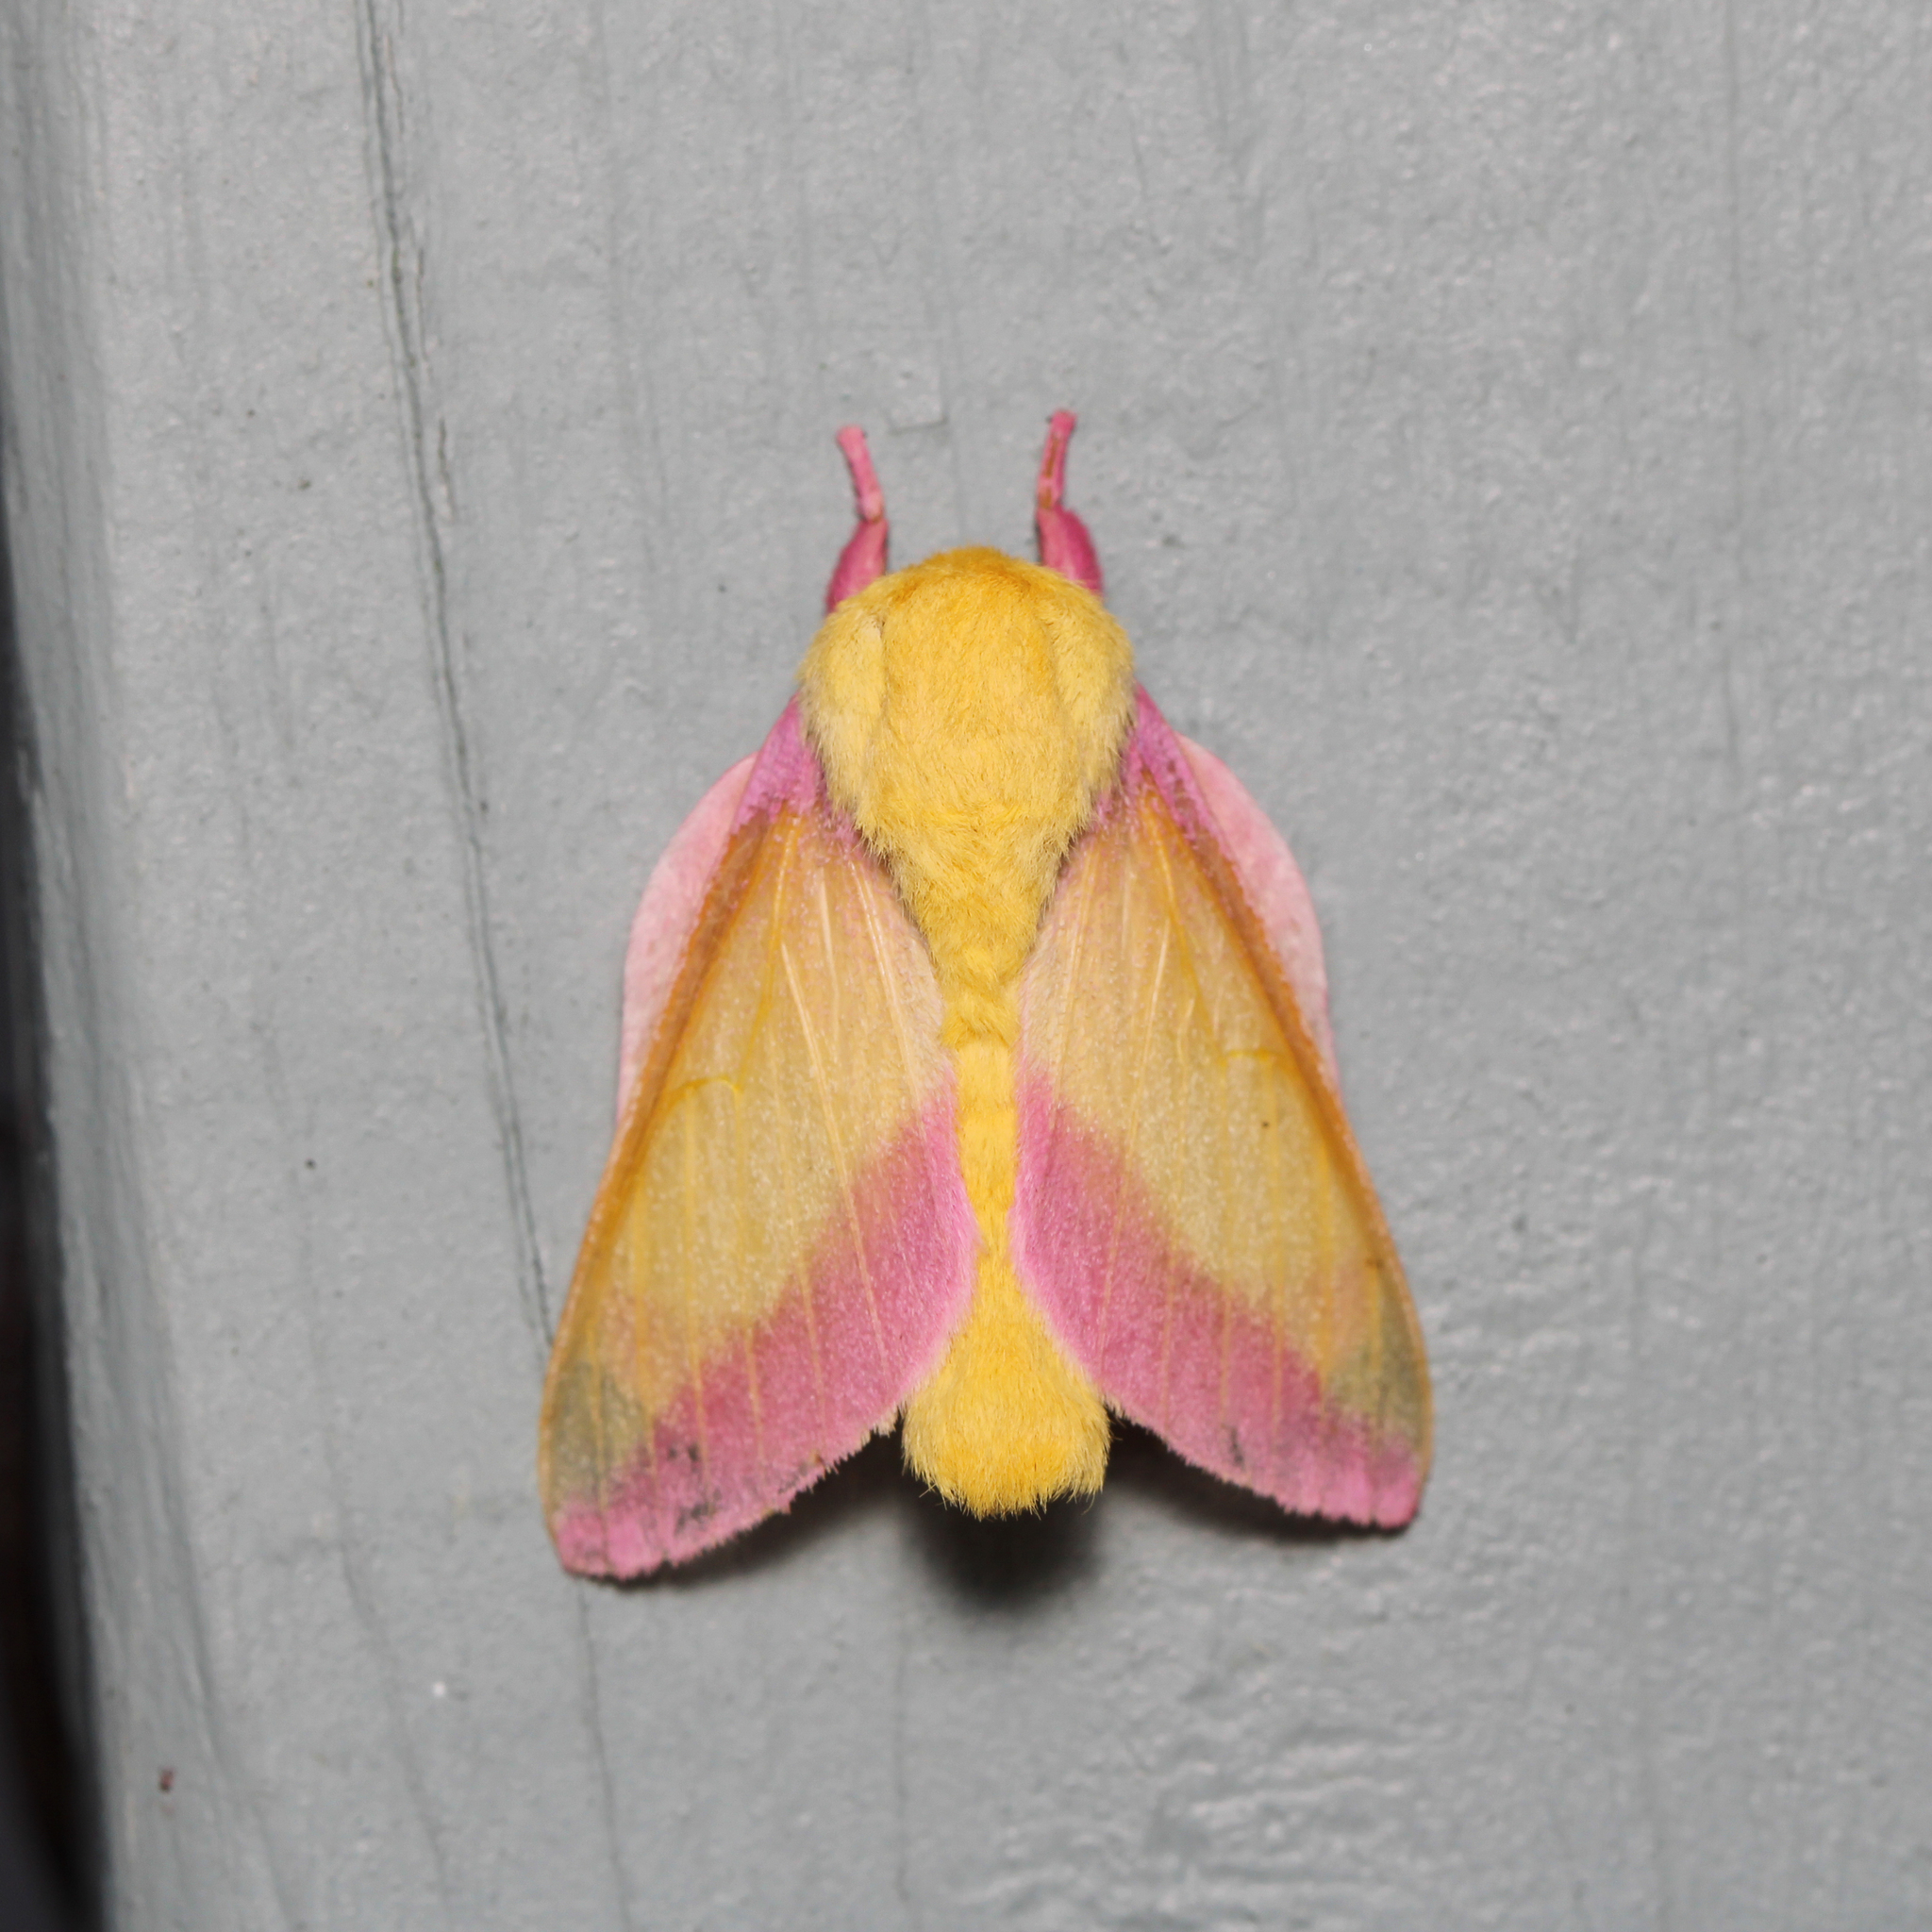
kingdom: Animalia
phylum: Arthropoda
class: Insecta
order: Lepidoptera
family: Saturniidae
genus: Dryocampa
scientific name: Dryocampa rubicunda
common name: Rosy maple moth
